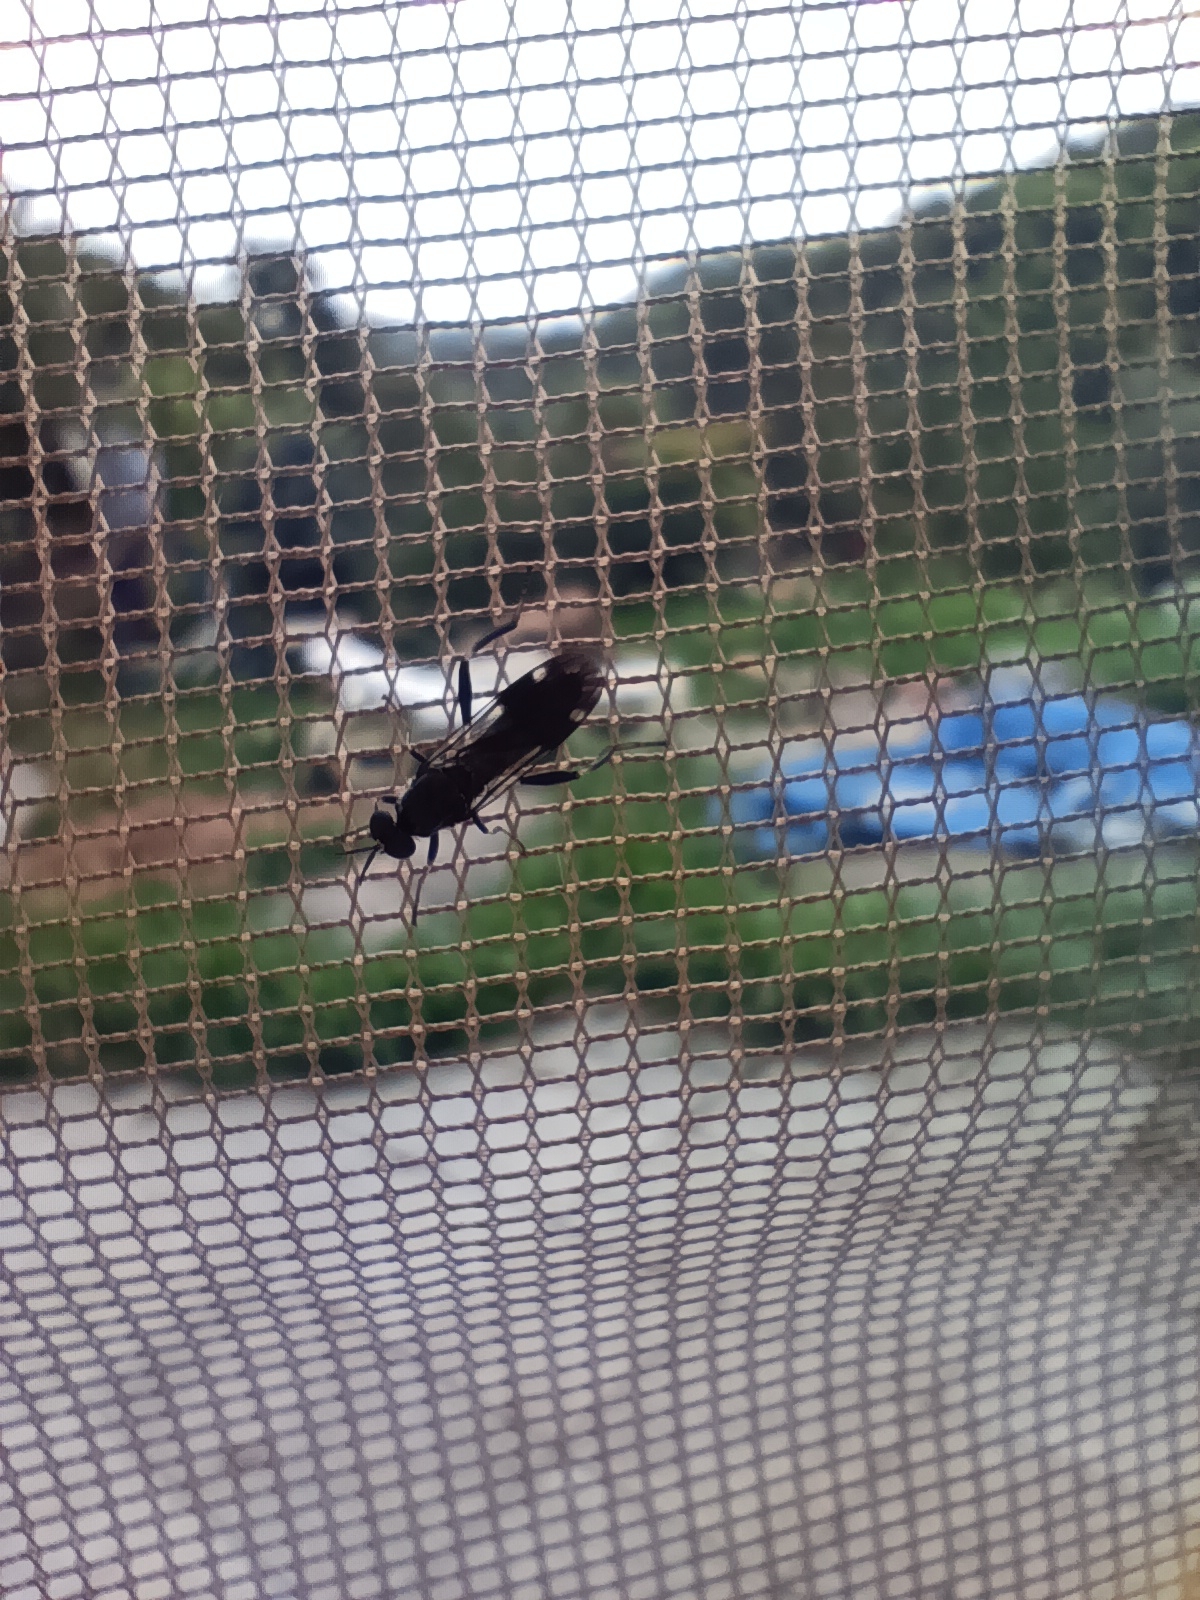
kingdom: Animalia
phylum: Arthropoda
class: Insecta
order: Diptera
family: Stratiomyidae
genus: Exaireta
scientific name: Exaireta spinigera
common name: Blue soldier fly
